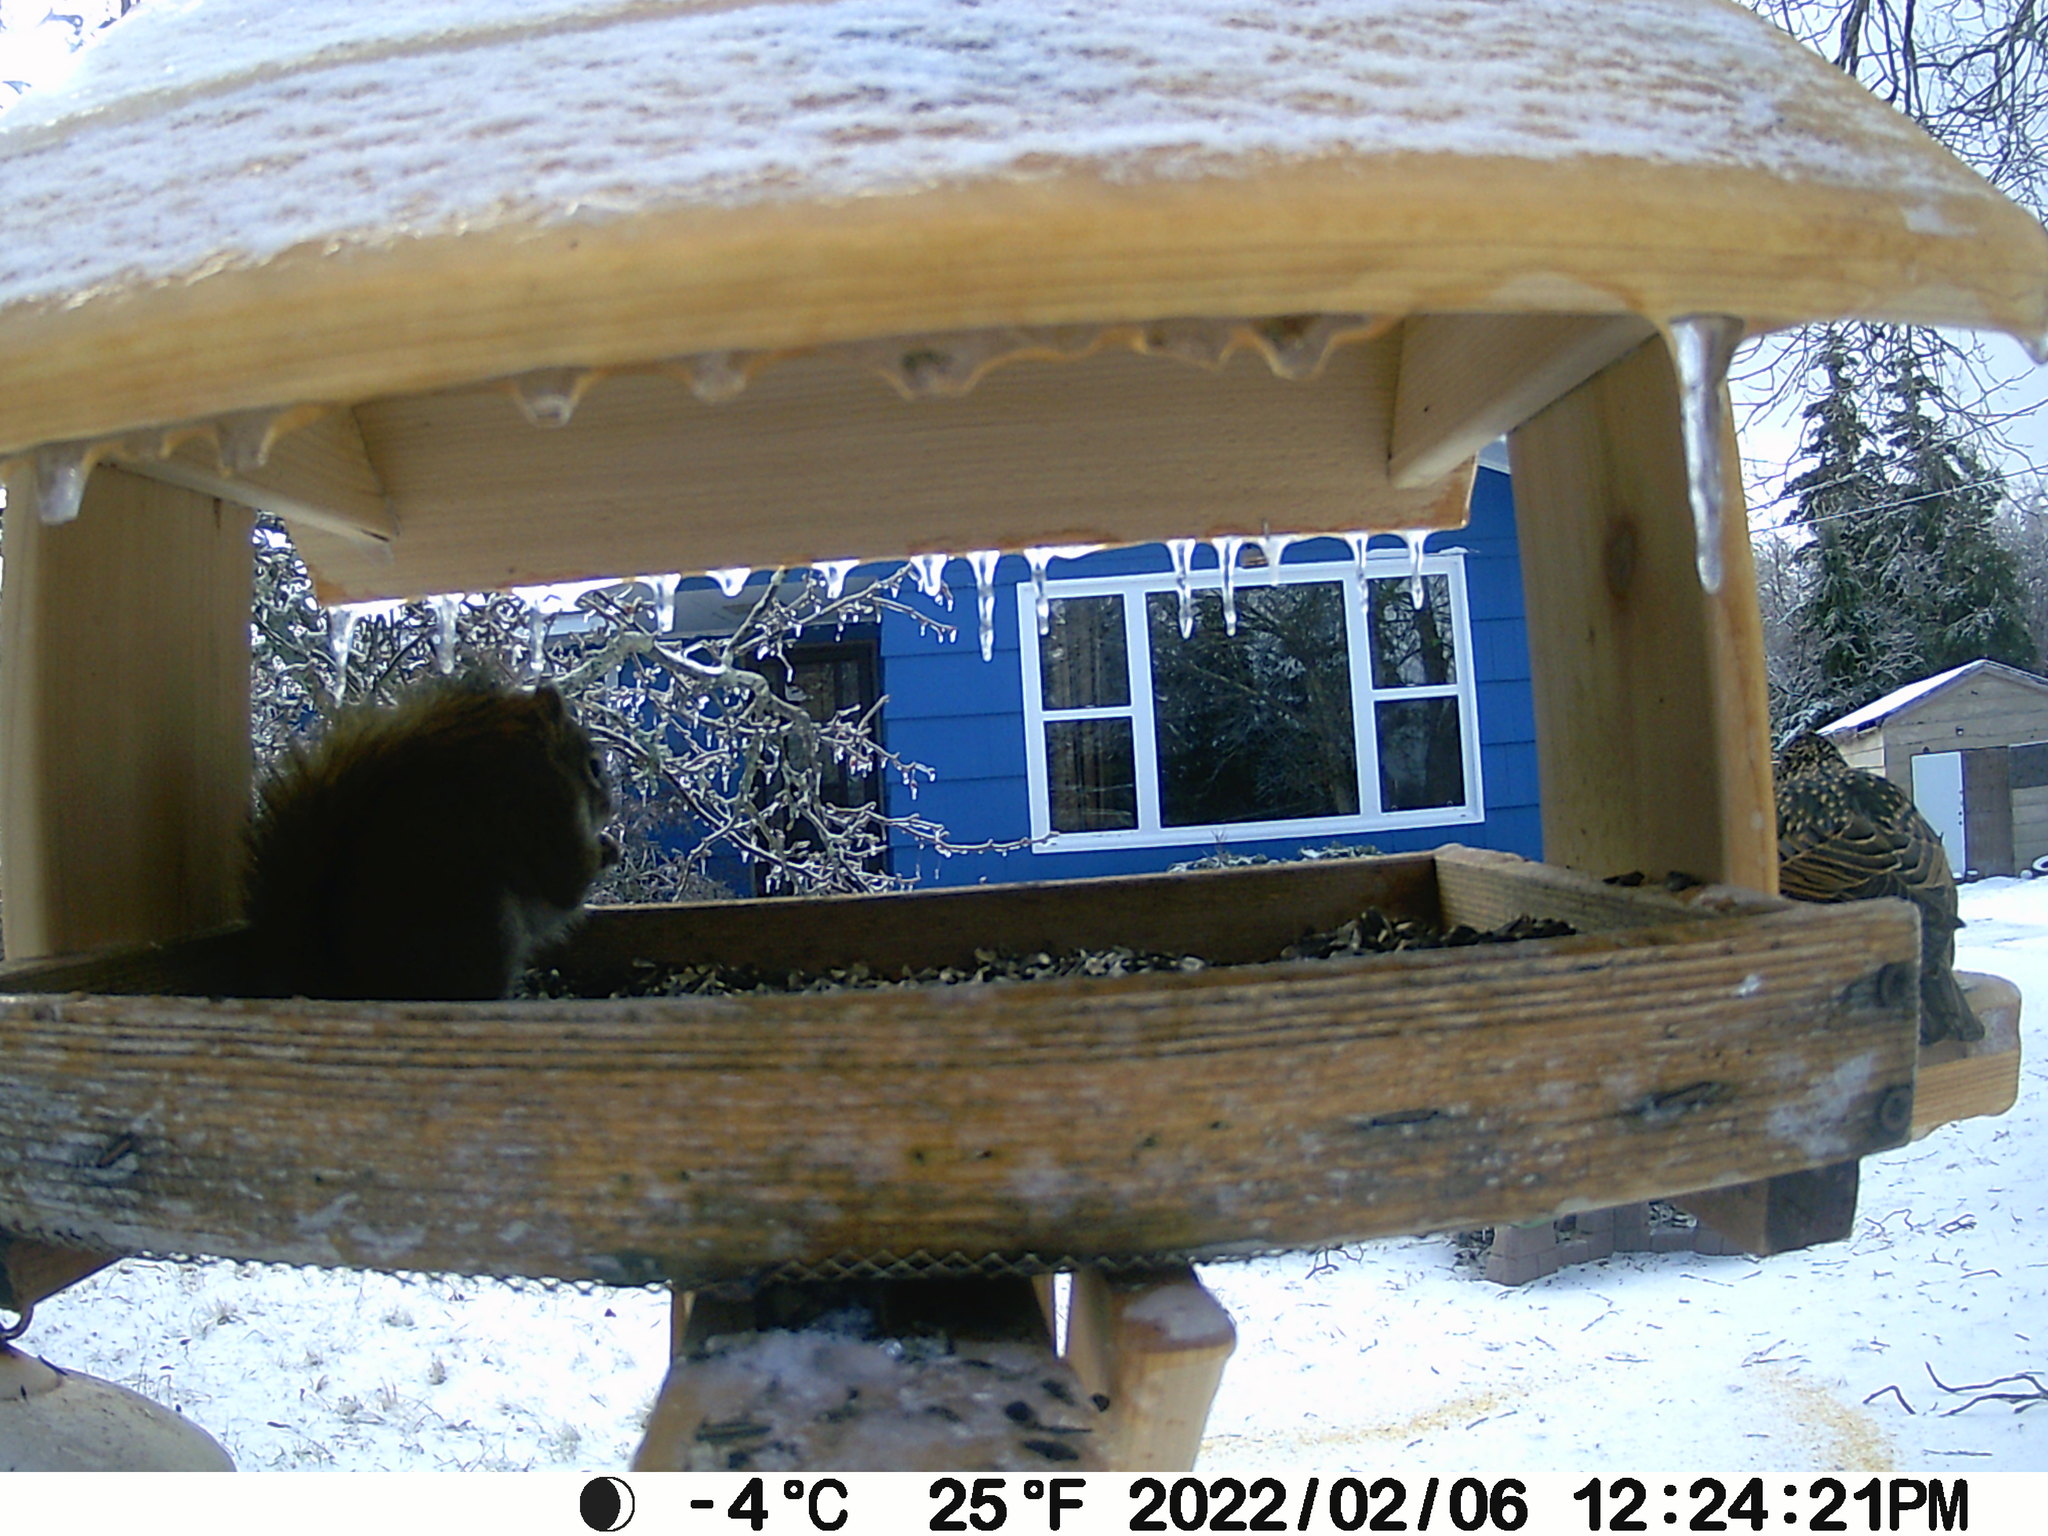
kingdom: Animalia
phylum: Chordata
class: Aves
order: Passeriformes
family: Sturnidae
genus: Sturnus
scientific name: Sturnus vulgaris
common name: Common starling
